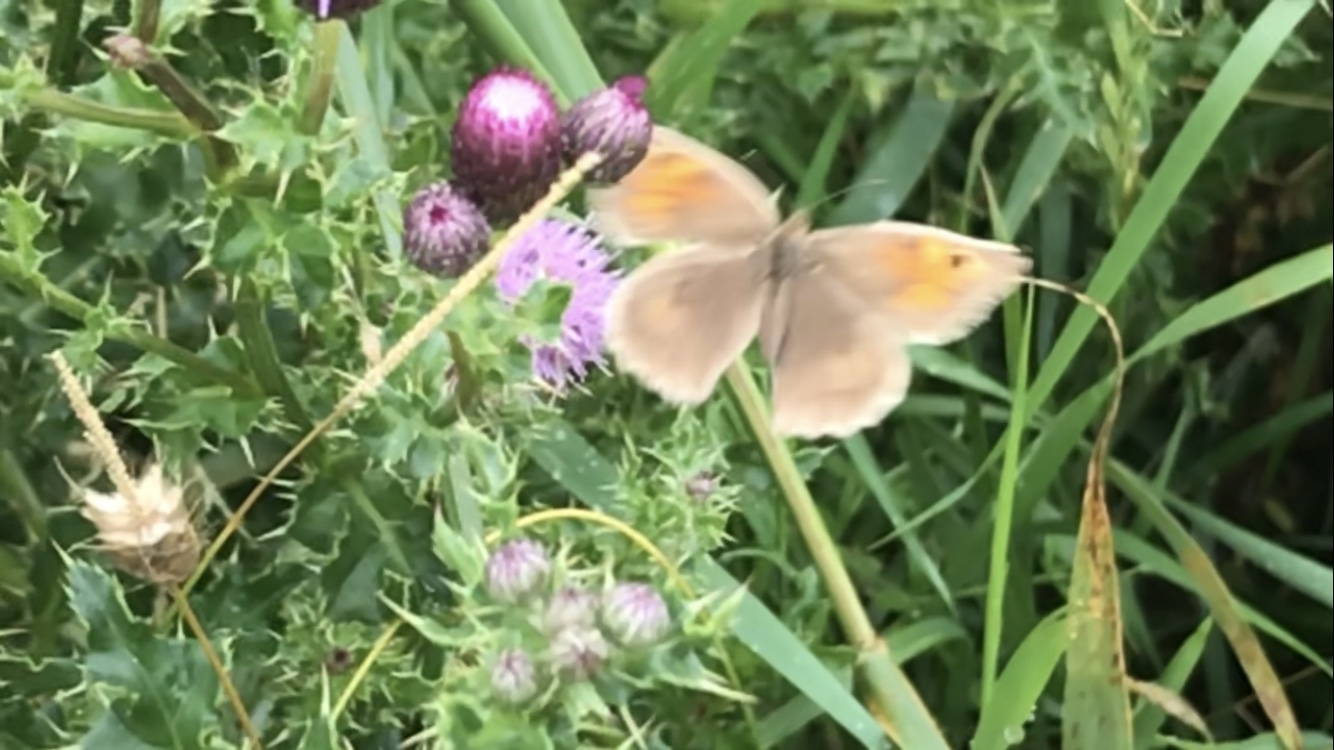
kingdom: Animalia
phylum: Arthropoda
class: Insecta
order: Lepidoptera
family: Nymphalidae
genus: Maniola
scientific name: Maniola jurtina
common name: Meadow brown
